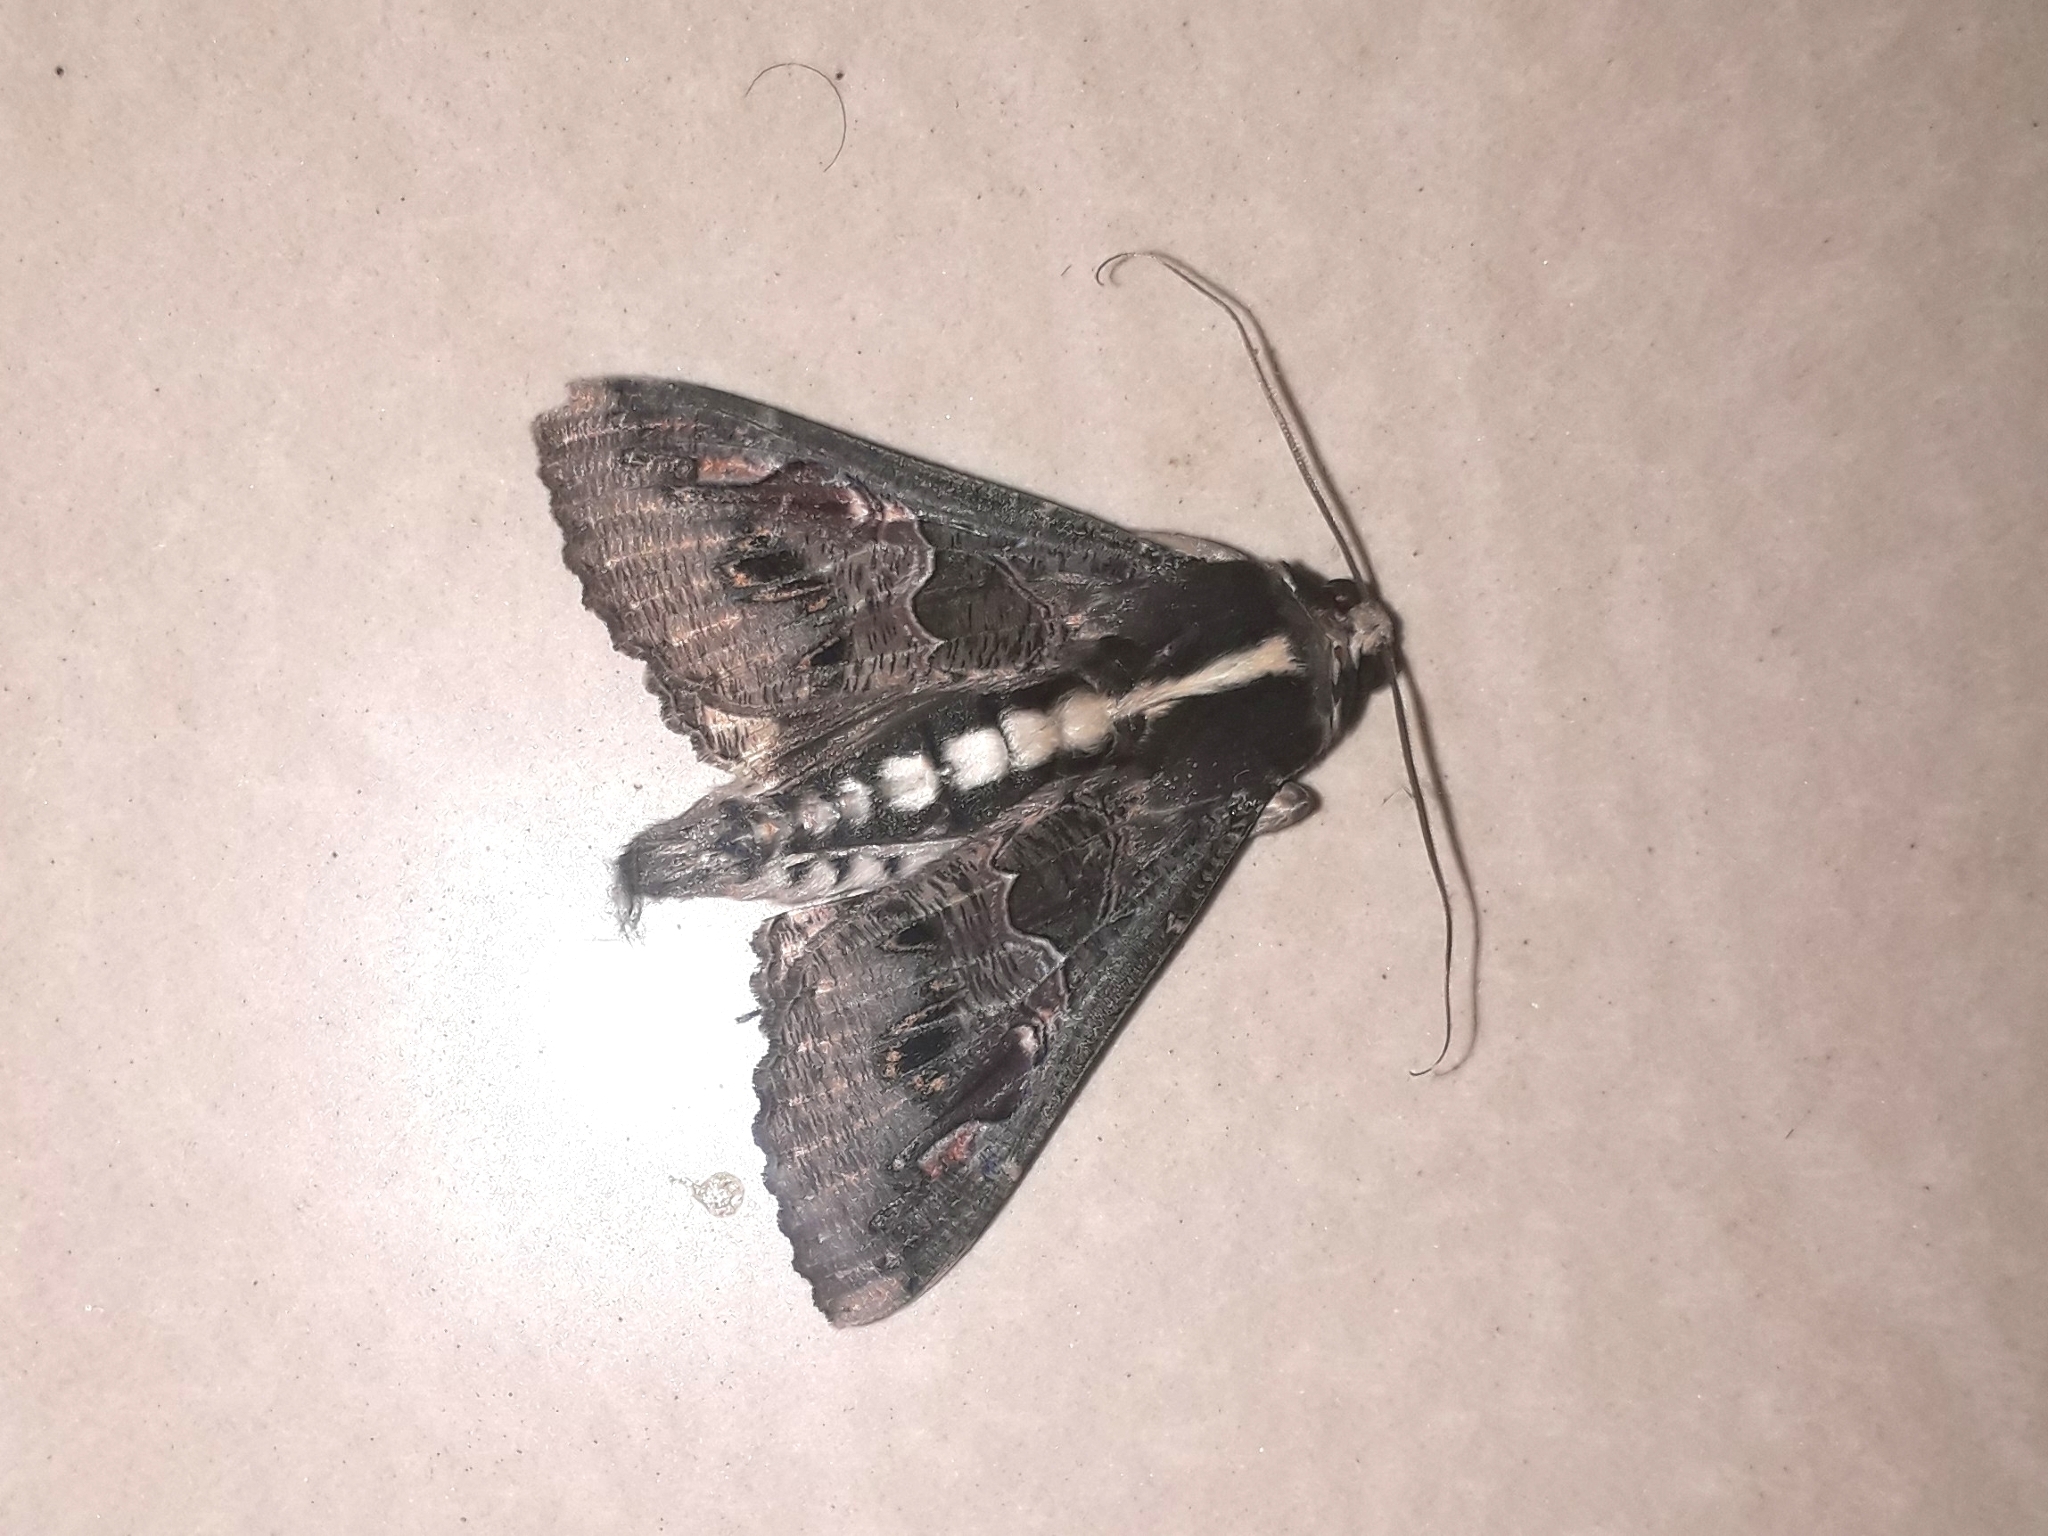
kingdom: Animalia
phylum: Arthropoda
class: Insecta
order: Lepidoptera
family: Erebidae
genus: Sphingomorpha
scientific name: Sphingomorpha chlorea
